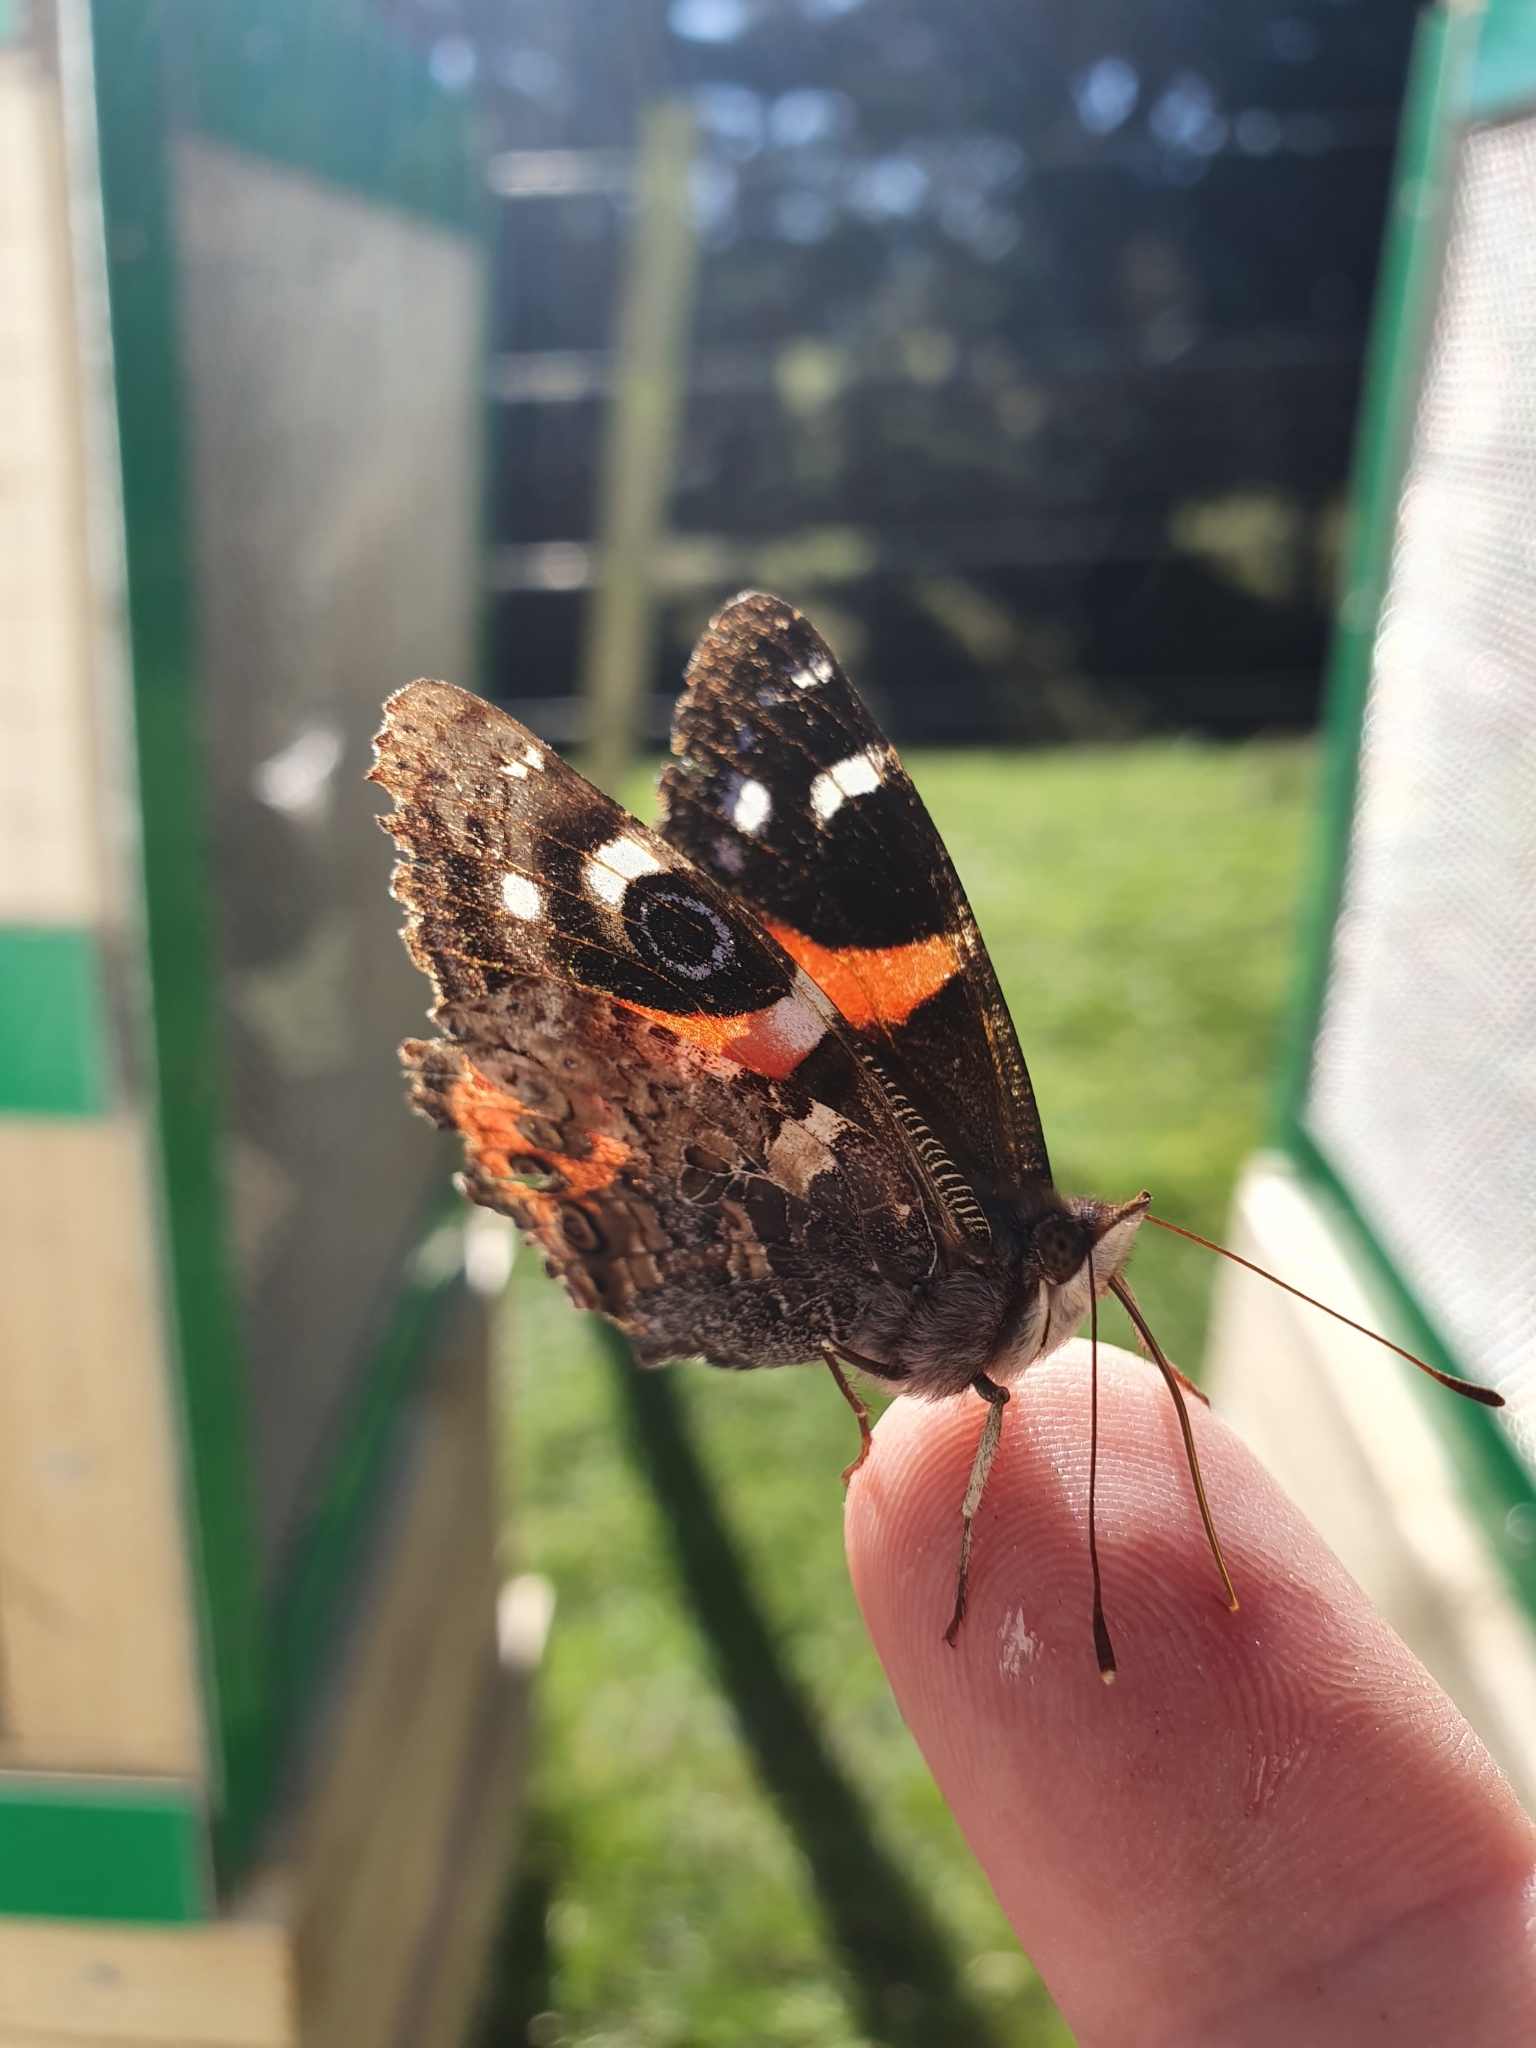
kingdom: Animalia
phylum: Arthropoda
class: Insecta
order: Lepidoptera
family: Nymphalidae
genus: Vanessa
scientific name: Vanessa gonerilla
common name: New zealand red admiral
